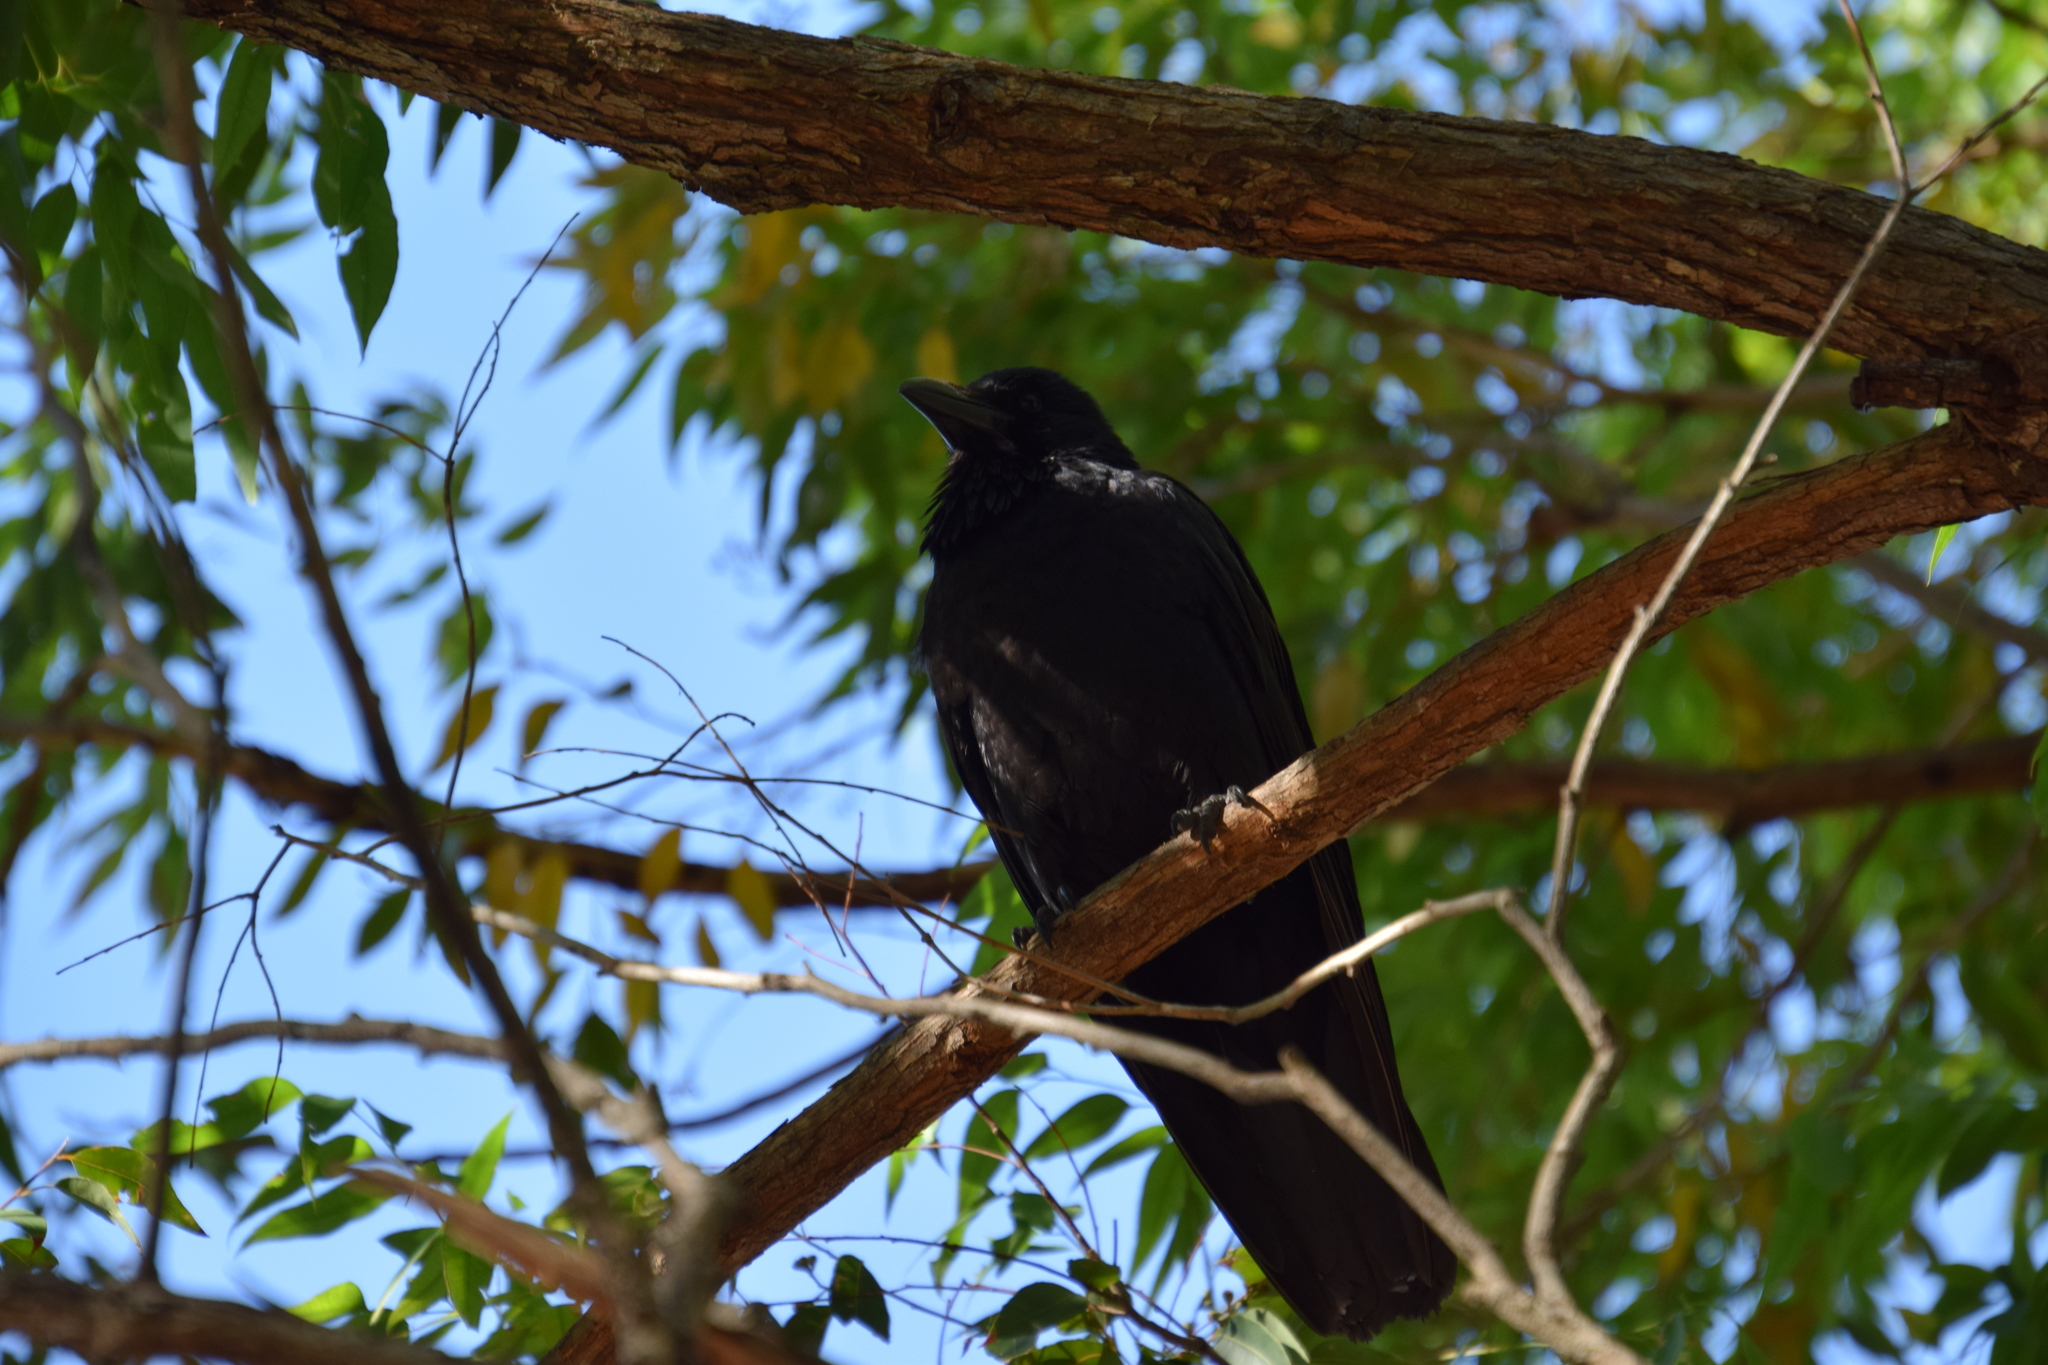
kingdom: Animalia
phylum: Chordata
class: Aves
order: Passeriformes
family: Corvidae
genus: Corvus
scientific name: Corvus coronoides
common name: Australian raven
